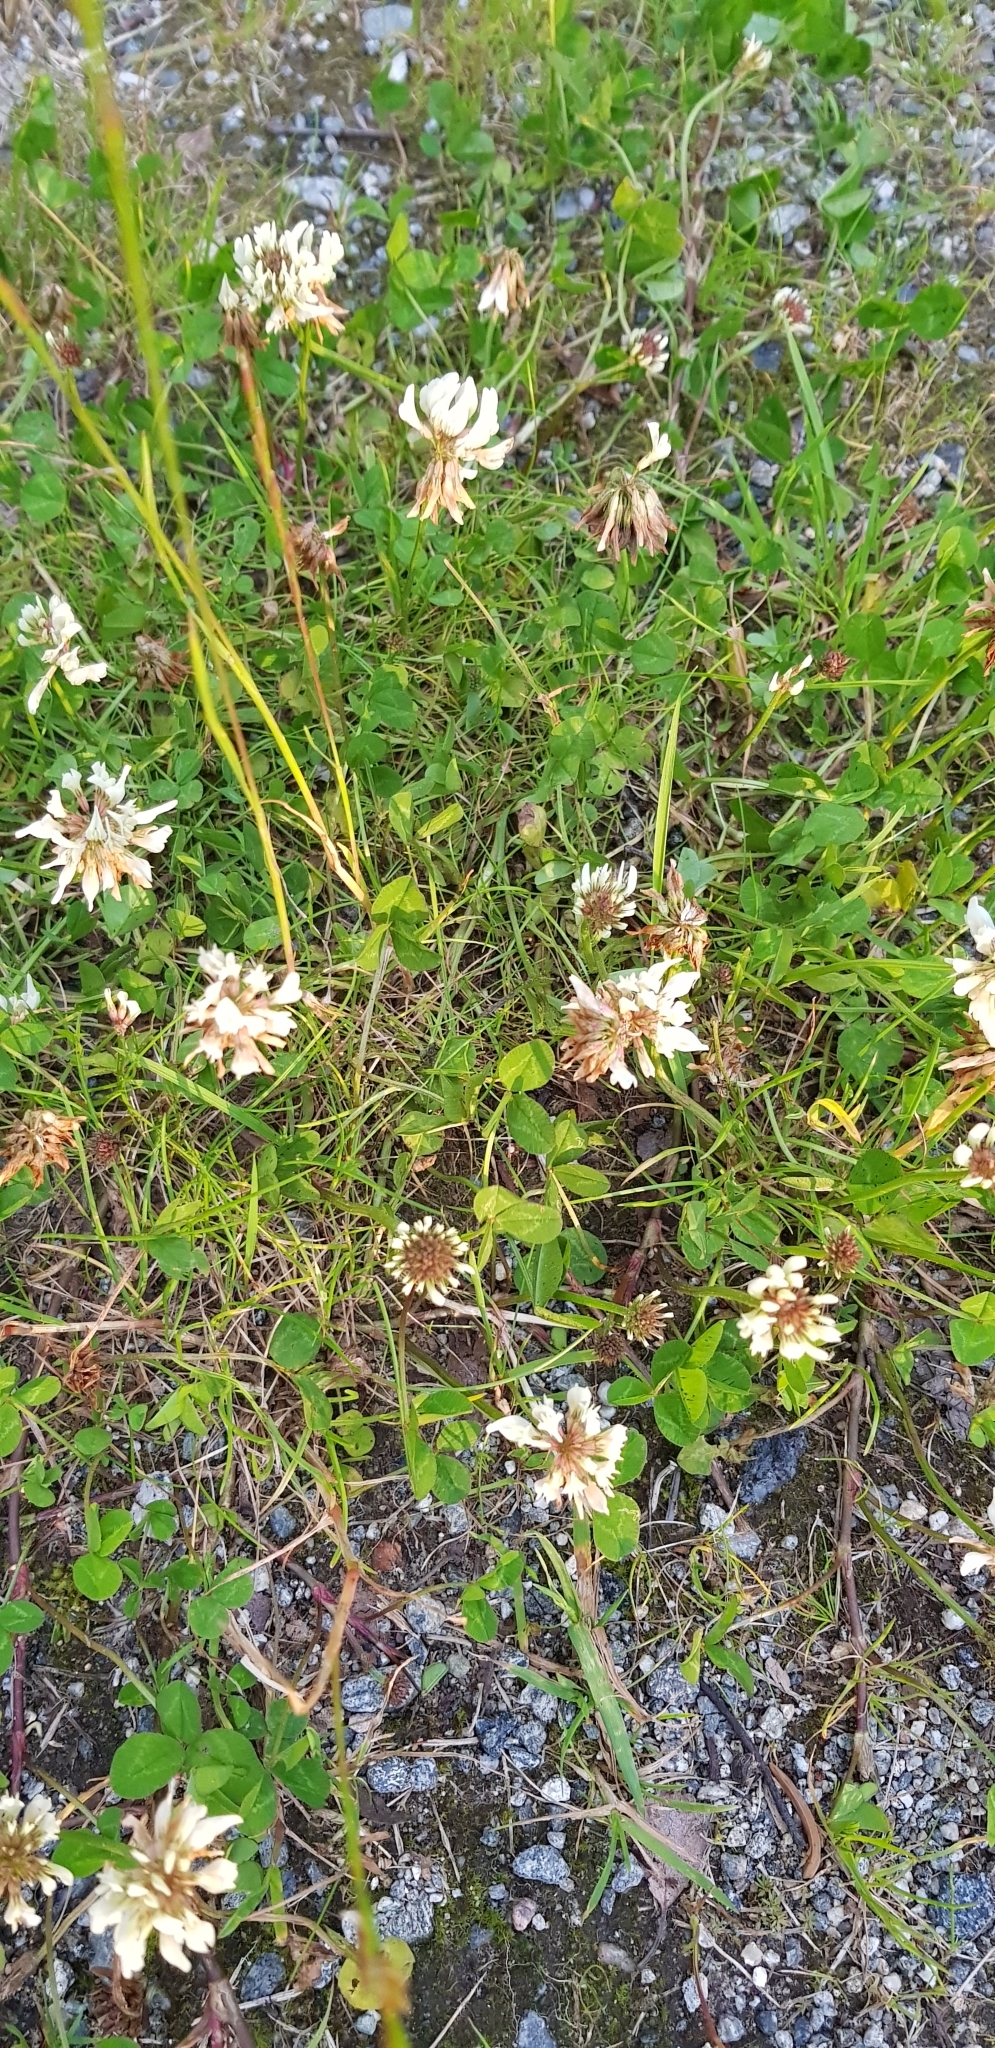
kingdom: Plantae
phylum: Tracheophyta
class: Magnoliopsida
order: Fabales
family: Fabaceae
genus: Trifolium
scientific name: Trifolium repens
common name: White clover
